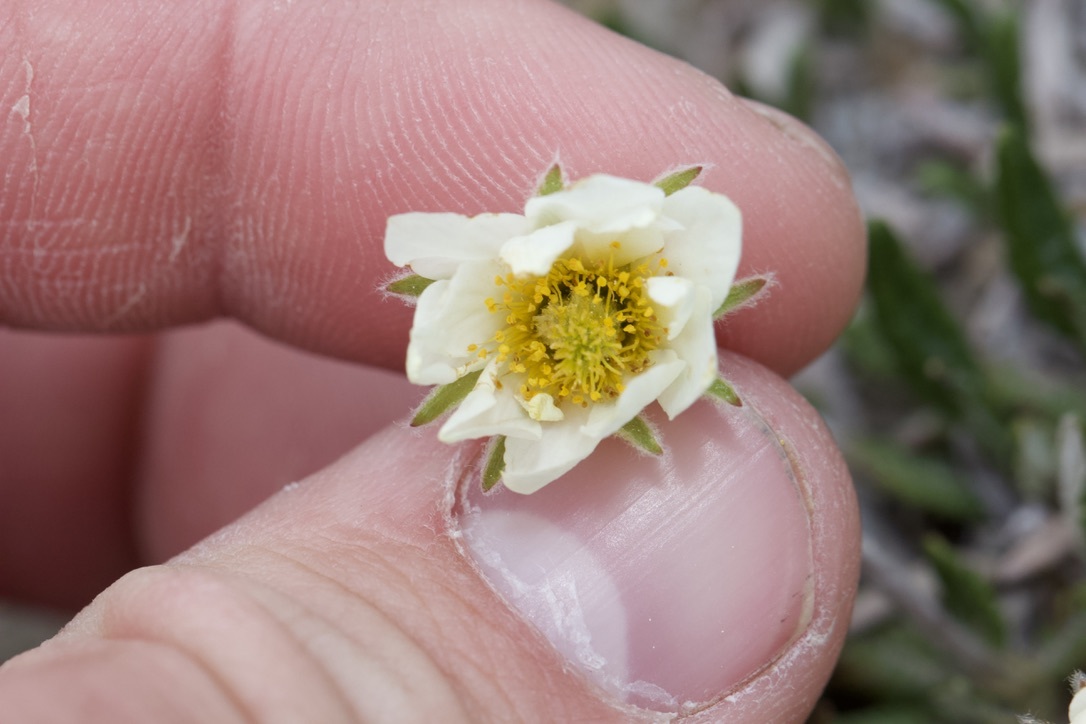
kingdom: Plantae
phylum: Tracheophyta
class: Magnoliopsida
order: Rosales
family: Rosaceae
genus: Dryas
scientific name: Dryas octopetala
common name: Eight-petal mountain-avens
